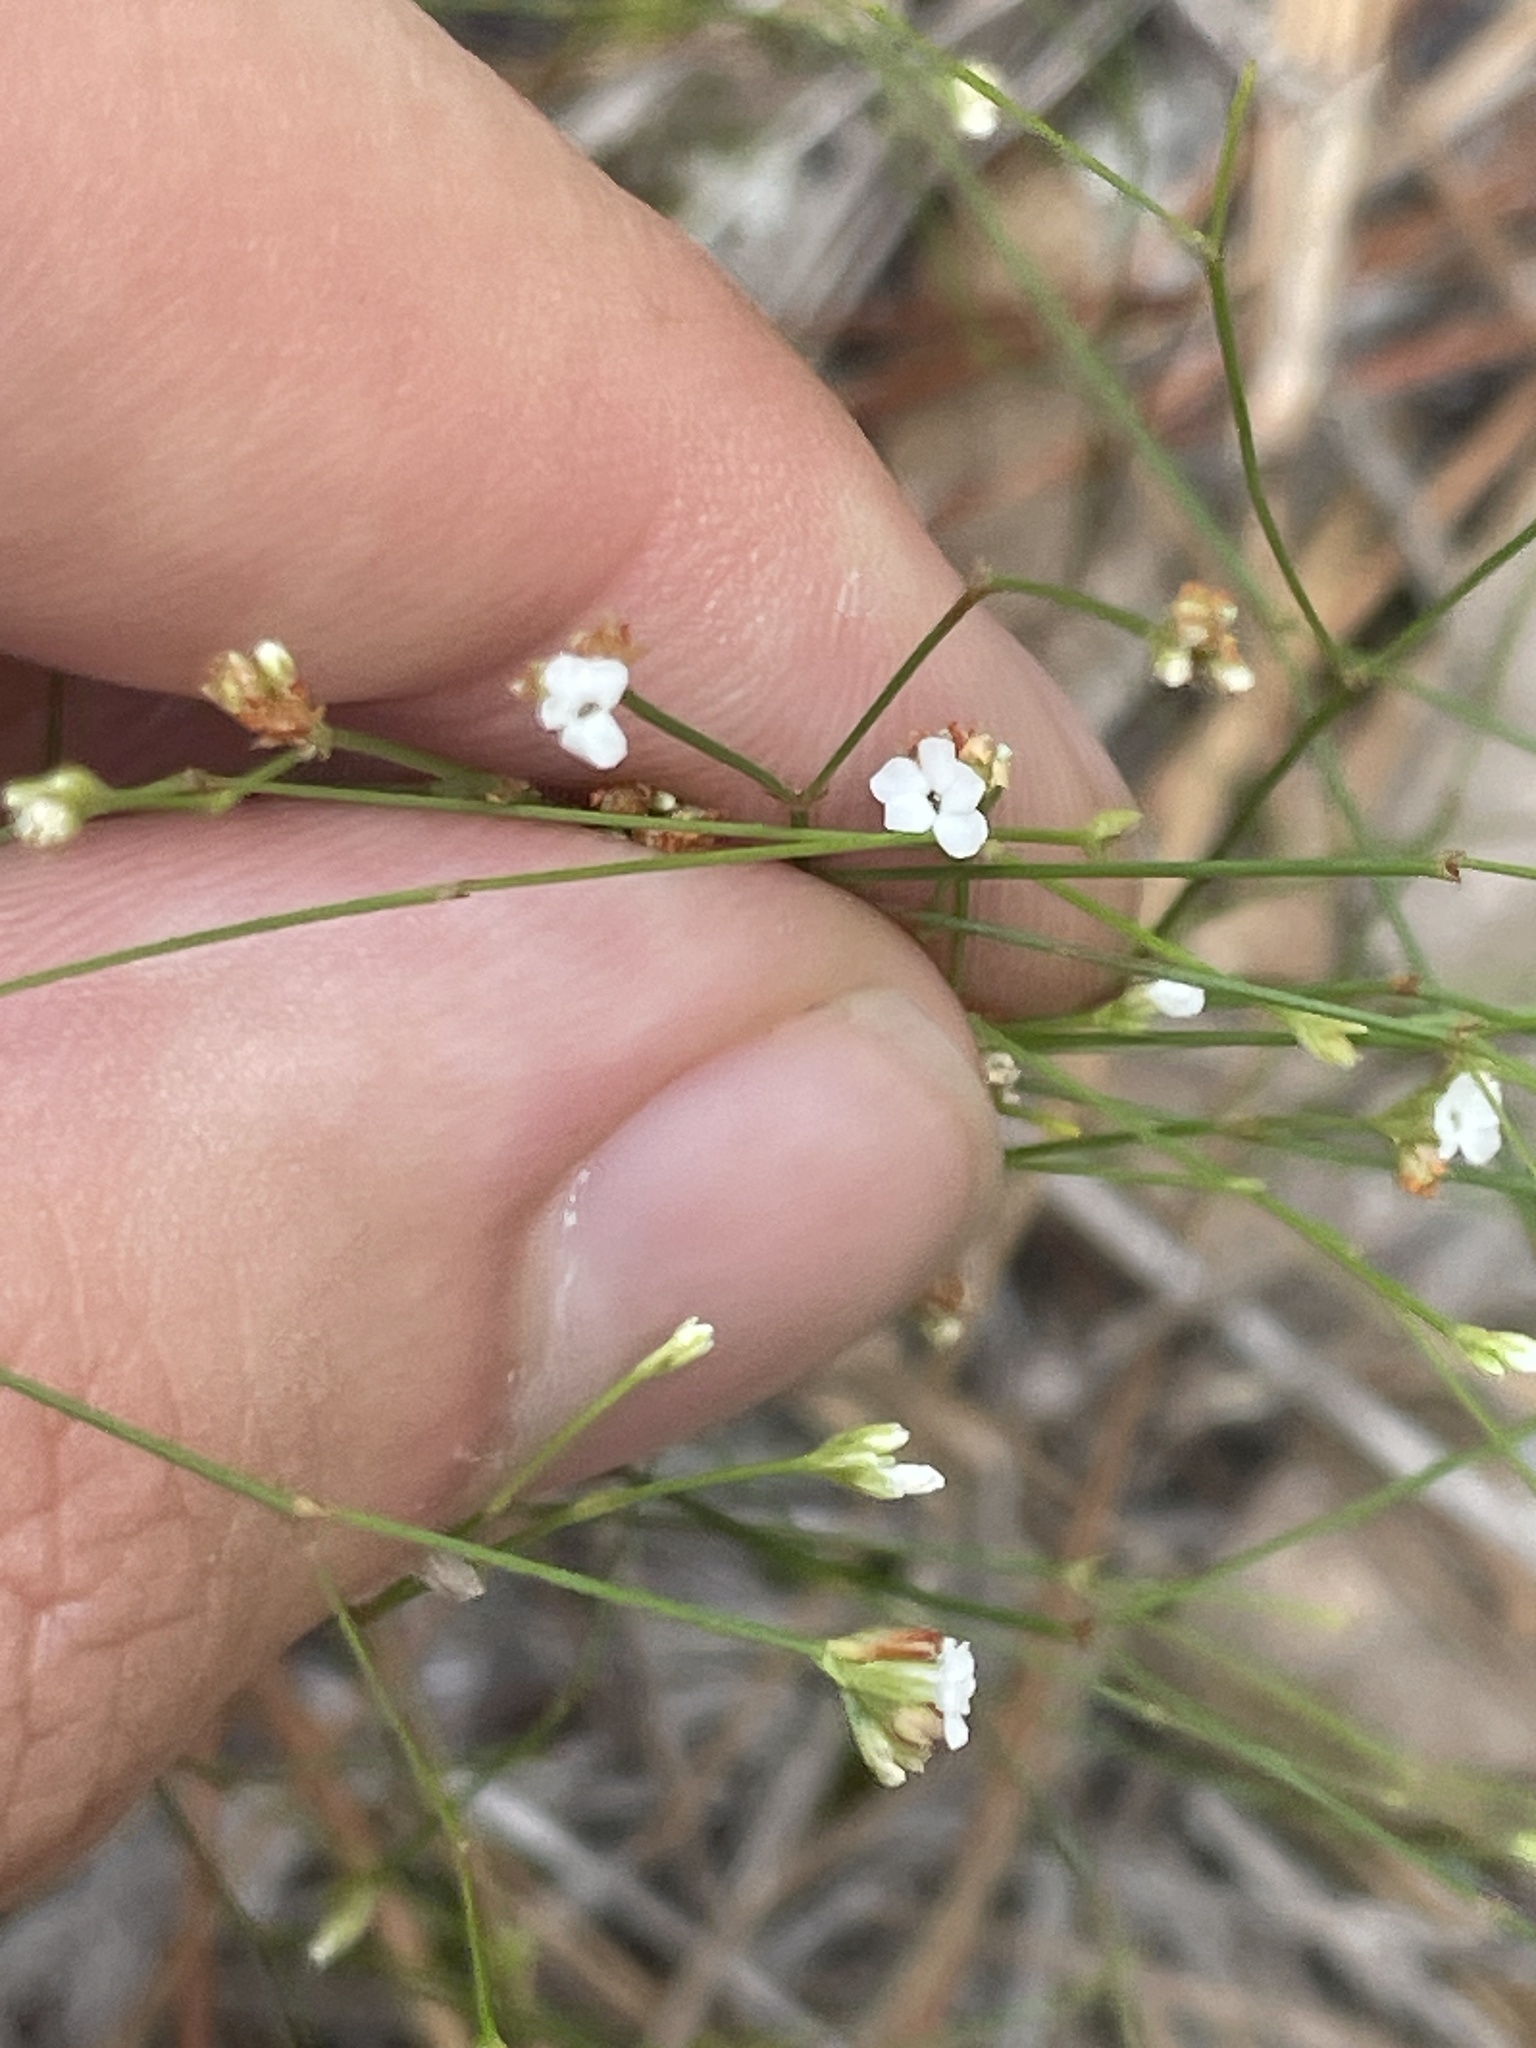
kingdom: Plantae
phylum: Tracheophyta
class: Magnoliopsida
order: Caryophyllales
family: Caryophyllaceae
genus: Stipulicida
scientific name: Stipulicida setacea
